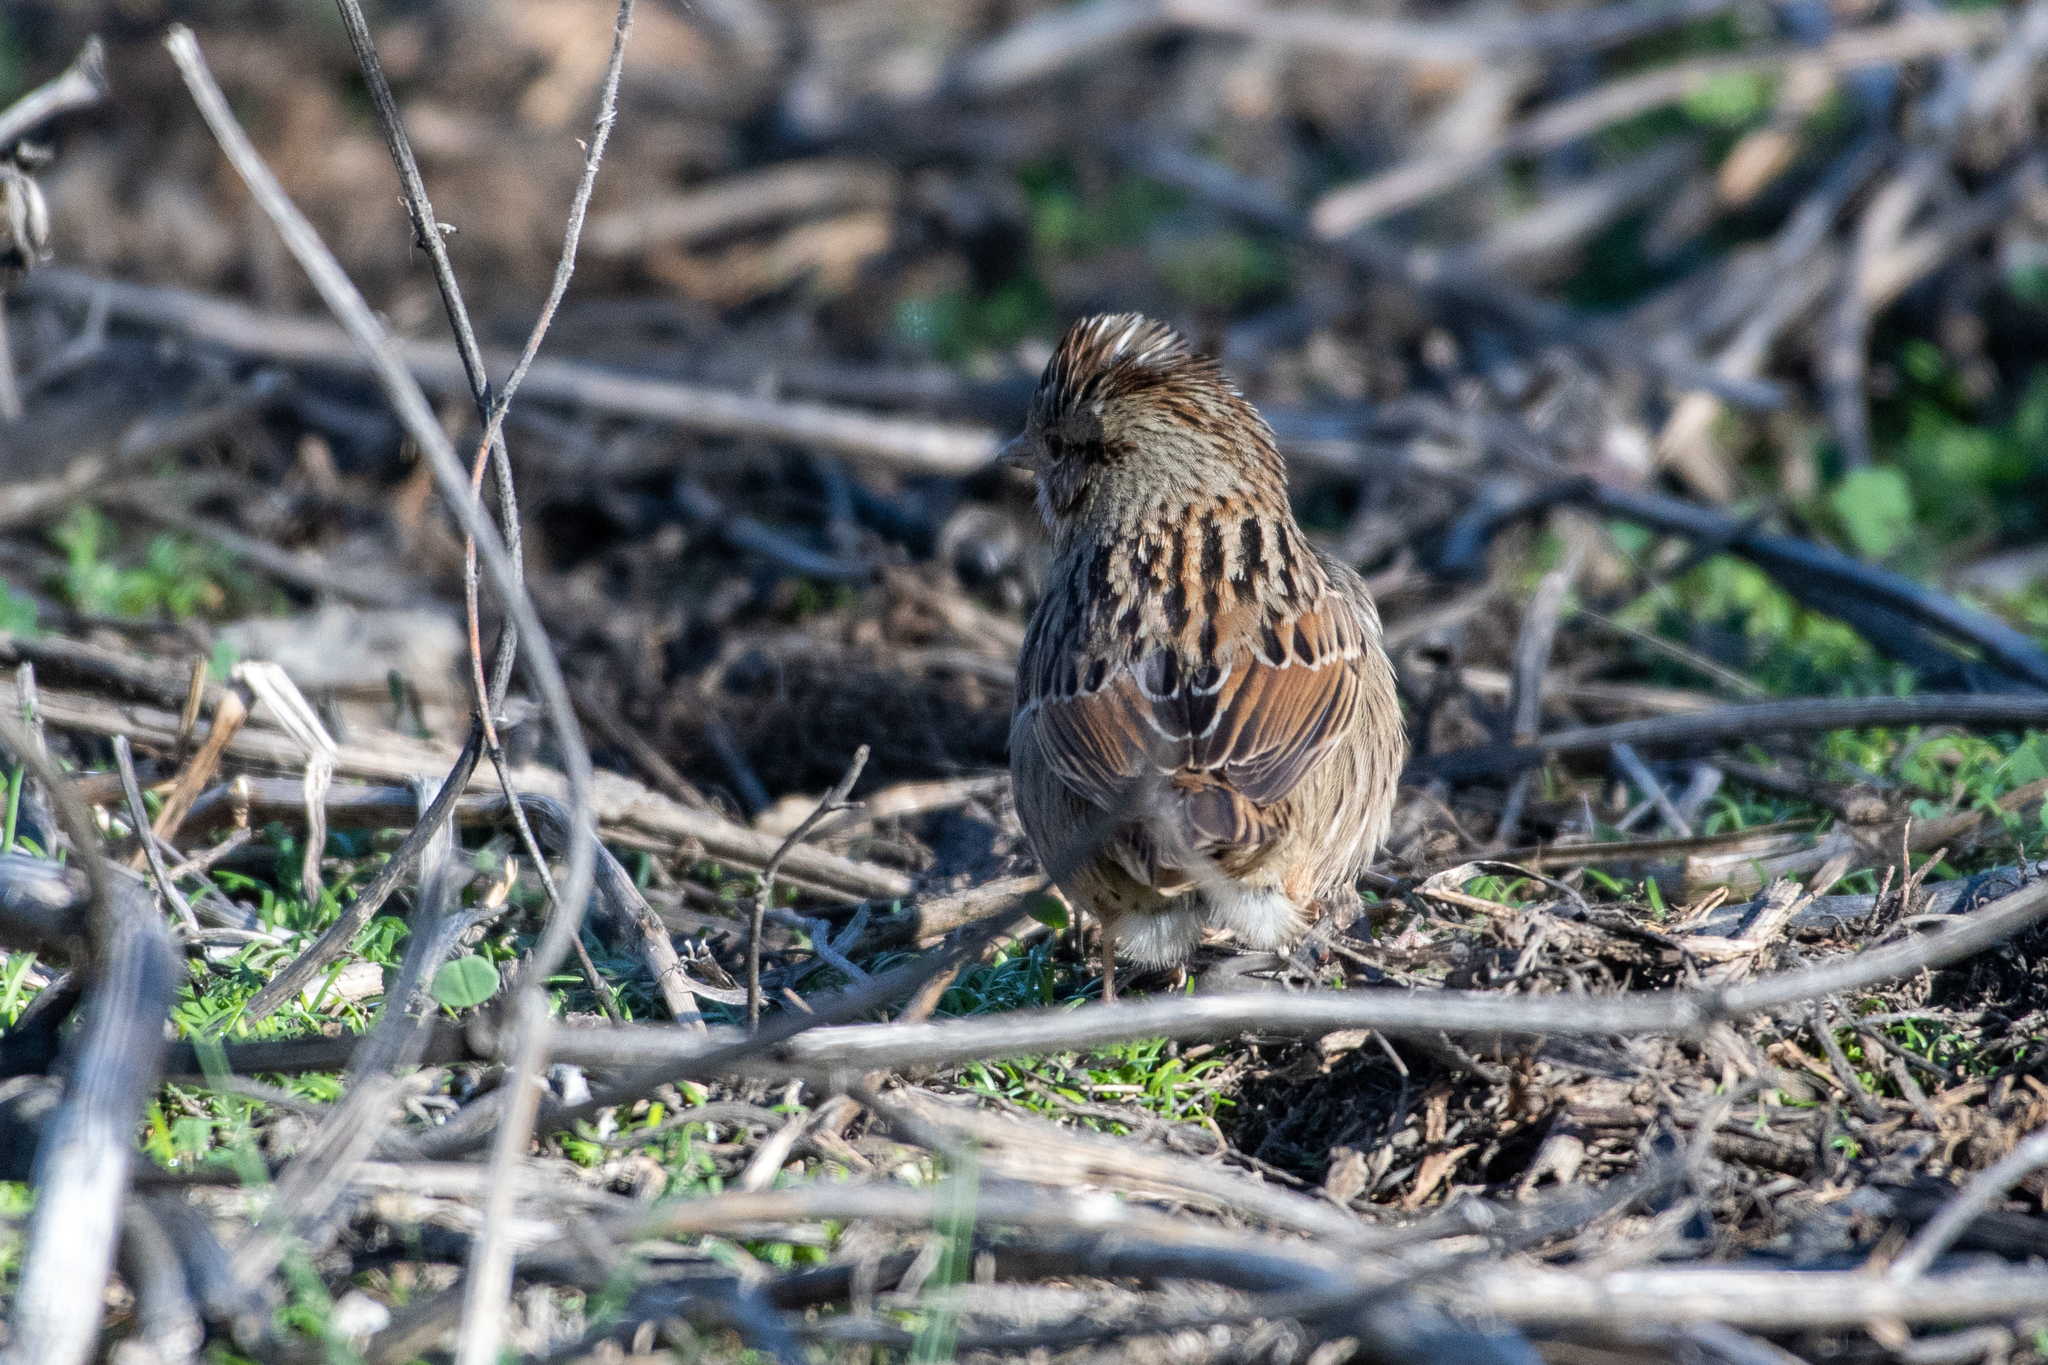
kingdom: Animalia
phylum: Chordata
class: Aves
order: Passeriformes
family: Passerellidae
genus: Melospiza
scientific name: Melospiza lincolnii
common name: Lincoln's sparrow
